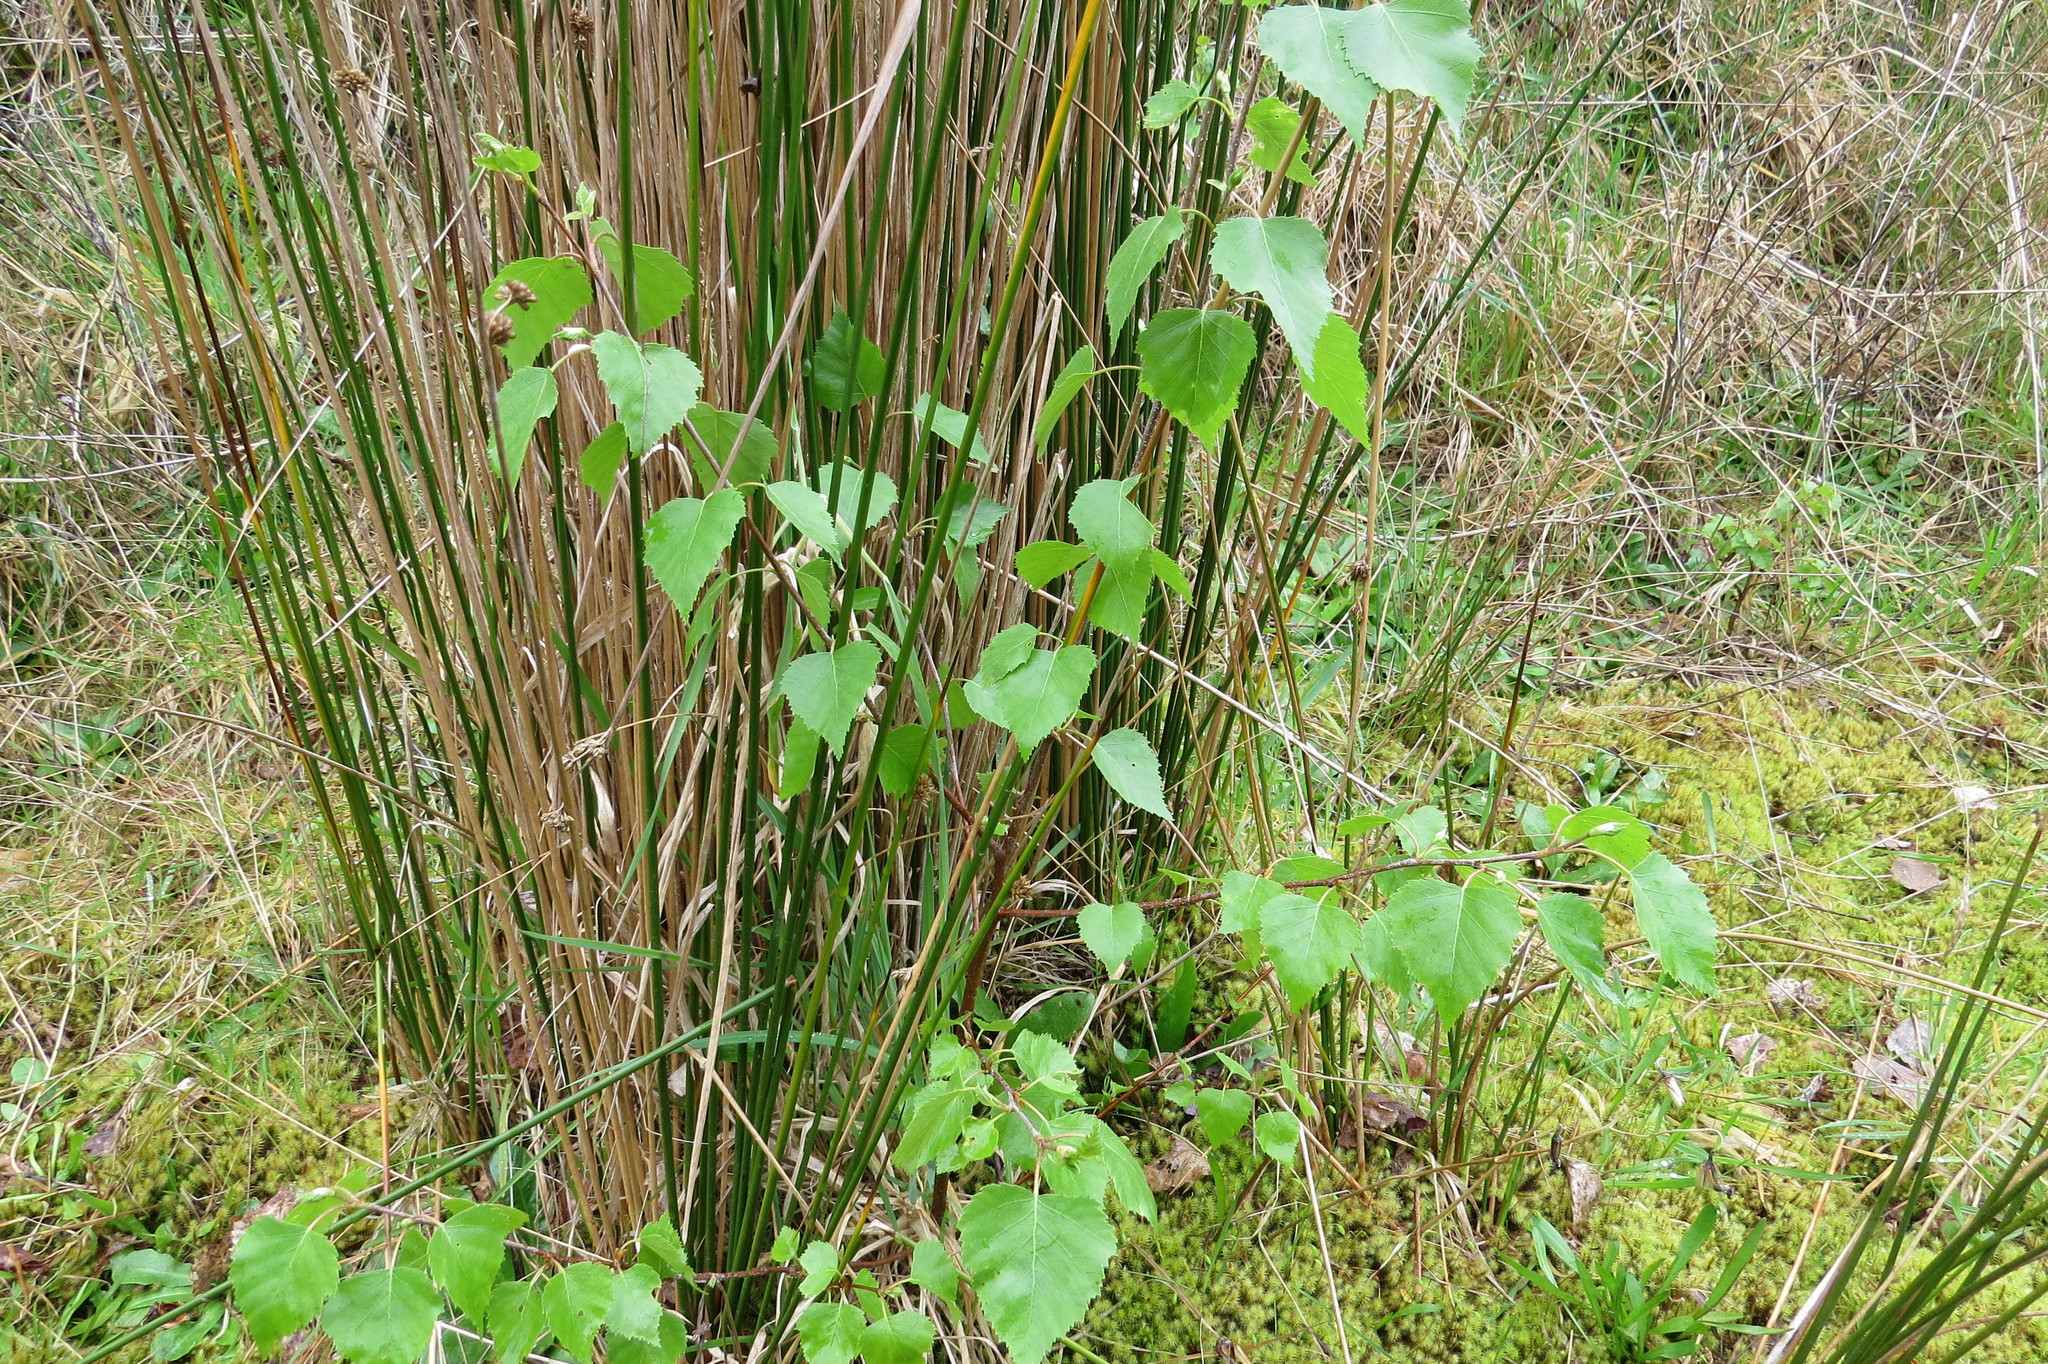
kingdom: Plantae
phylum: Tracheophyta
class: Magnoliopsida
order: Fagales
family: Betulaceae
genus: Betula
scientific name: Betula pendula
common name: Silver birch
